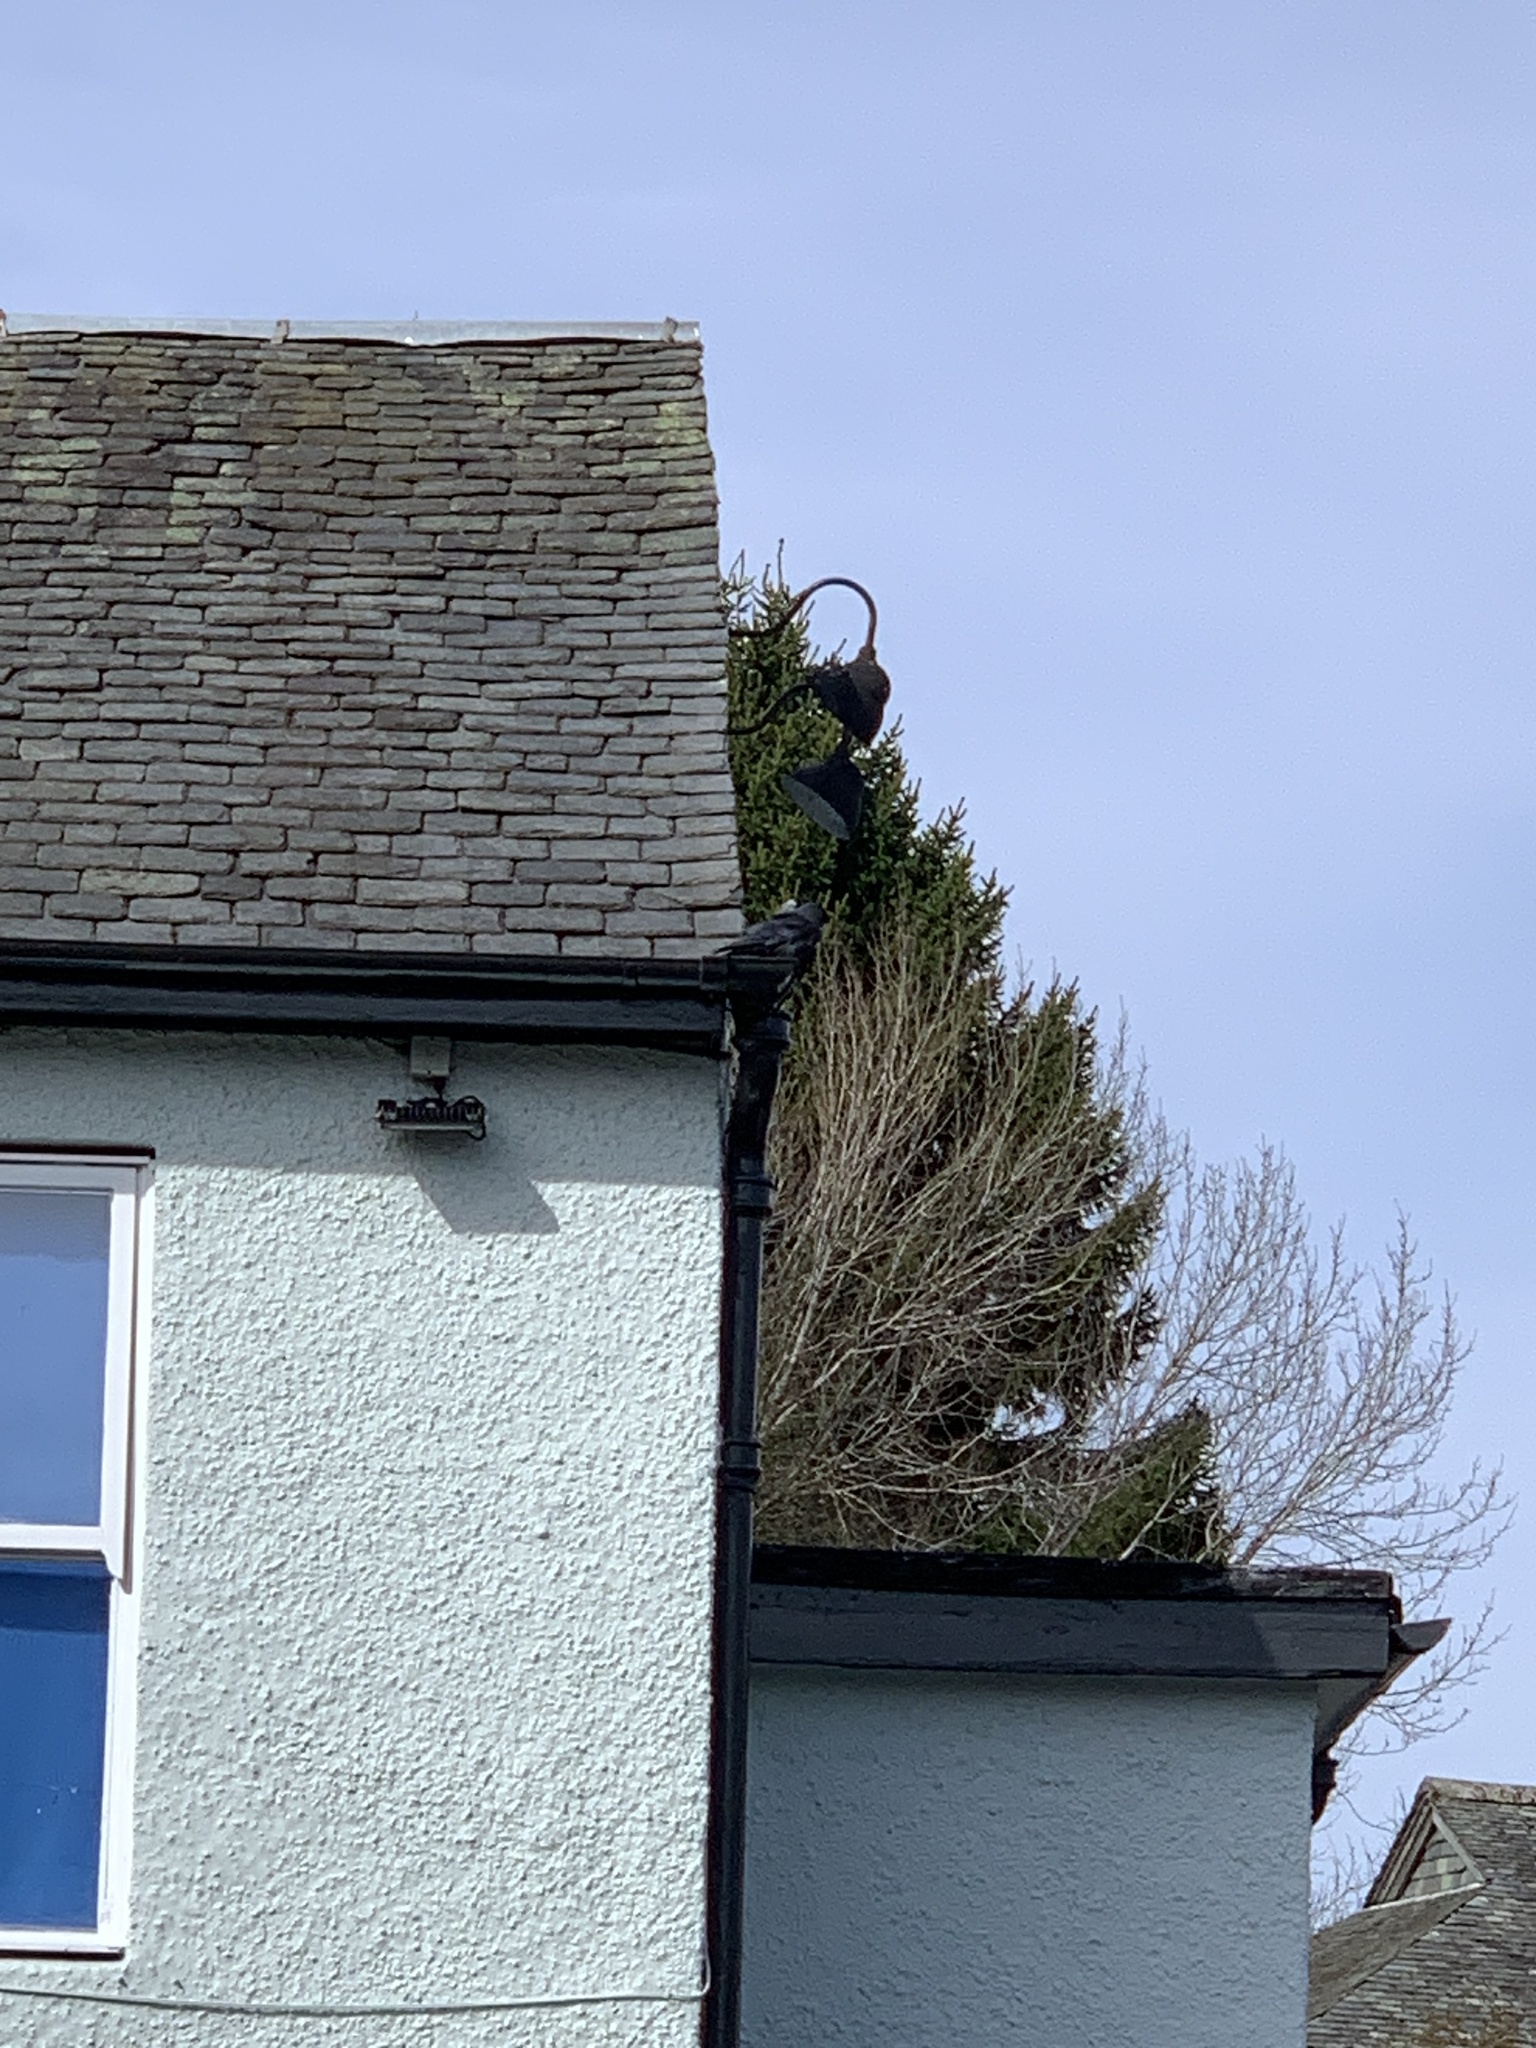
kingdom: Animalia
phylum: Chordata
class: Aves
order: Passeriformes
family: Corvidae
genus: Coloeus
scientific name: Coloeus monedula
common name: Western jackdaw
